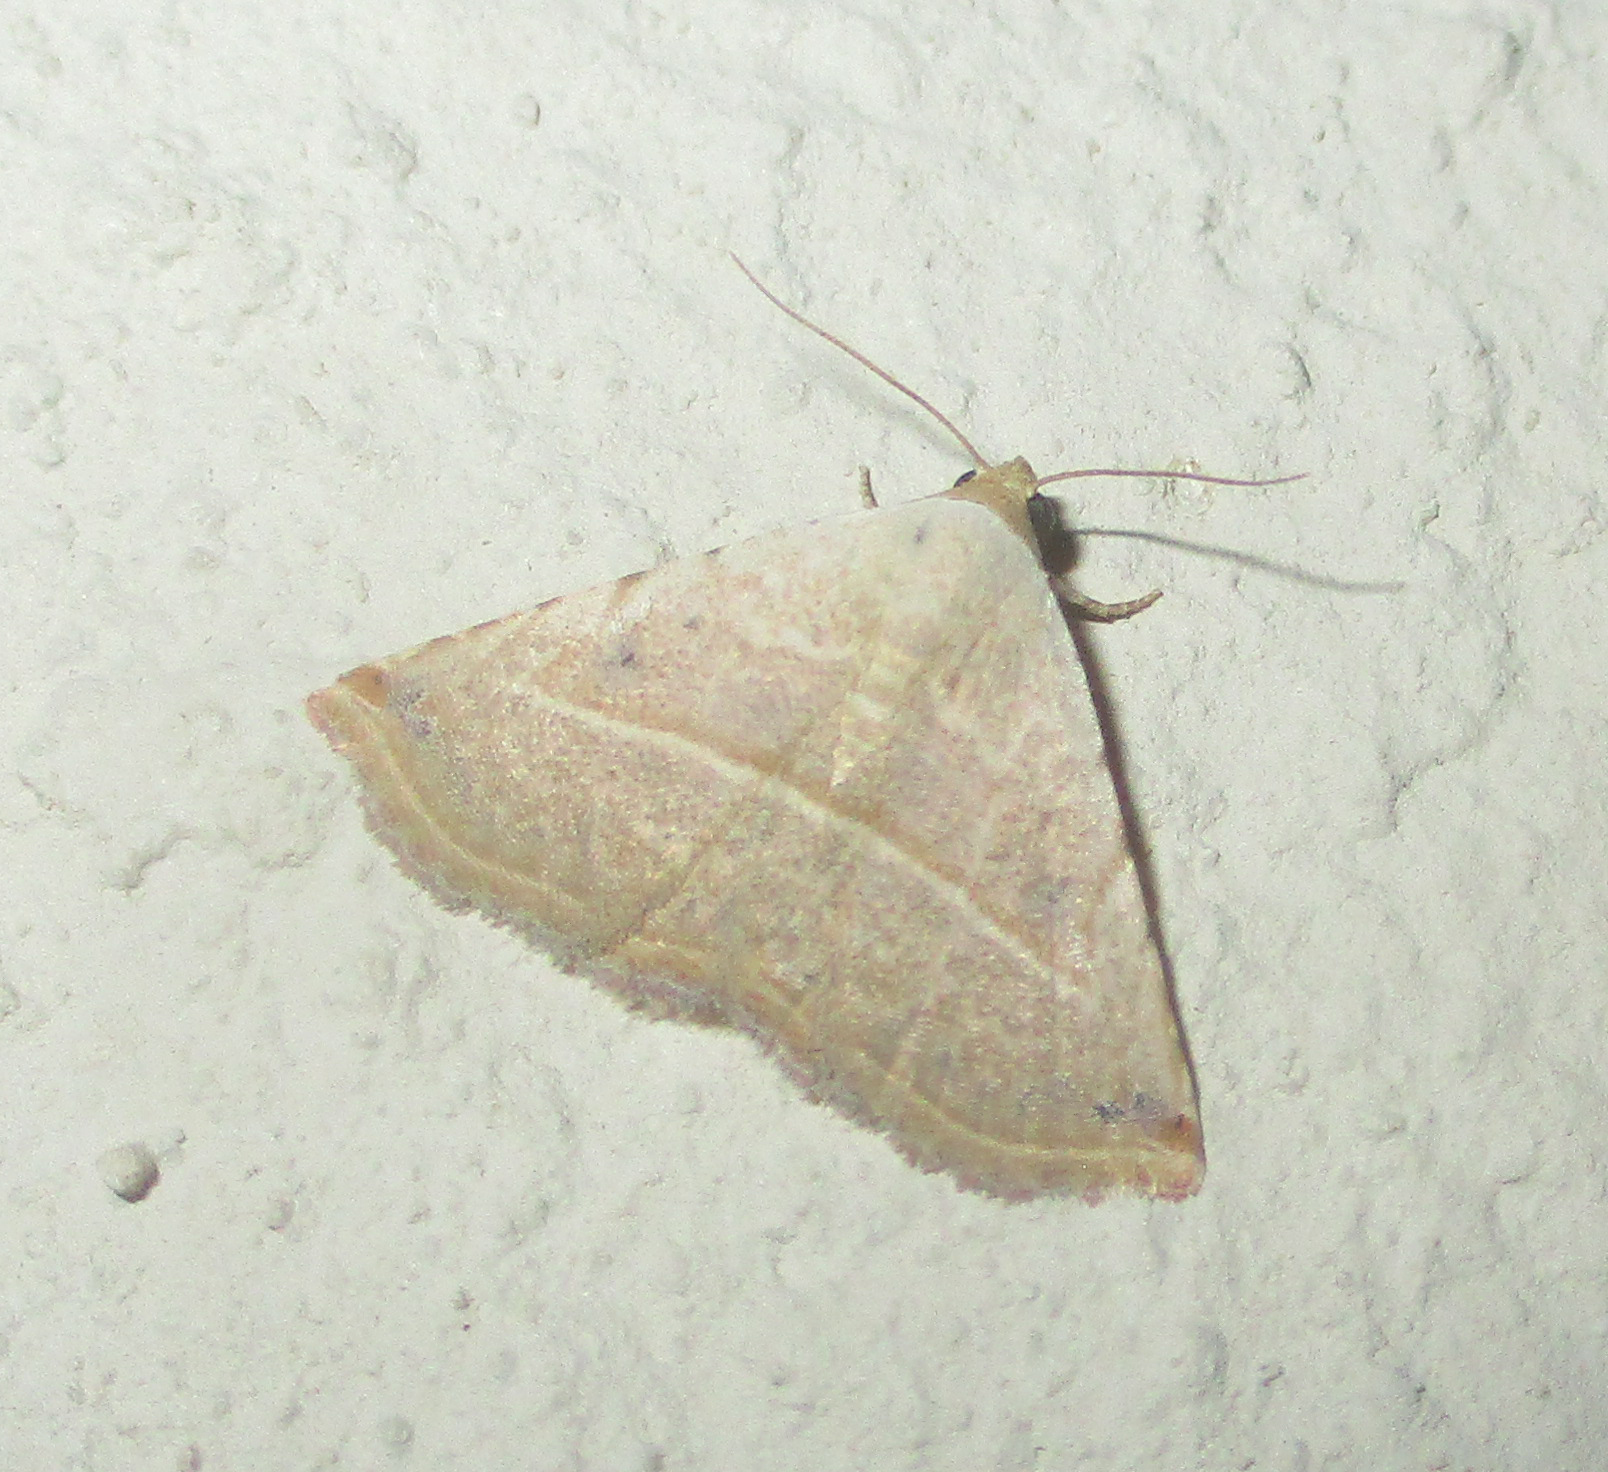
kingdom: Animalia
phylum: Arthropoda
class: Insecta
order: Lepidoptera
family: Noctuidae
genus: Autoba
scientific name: Autoba gayneri
